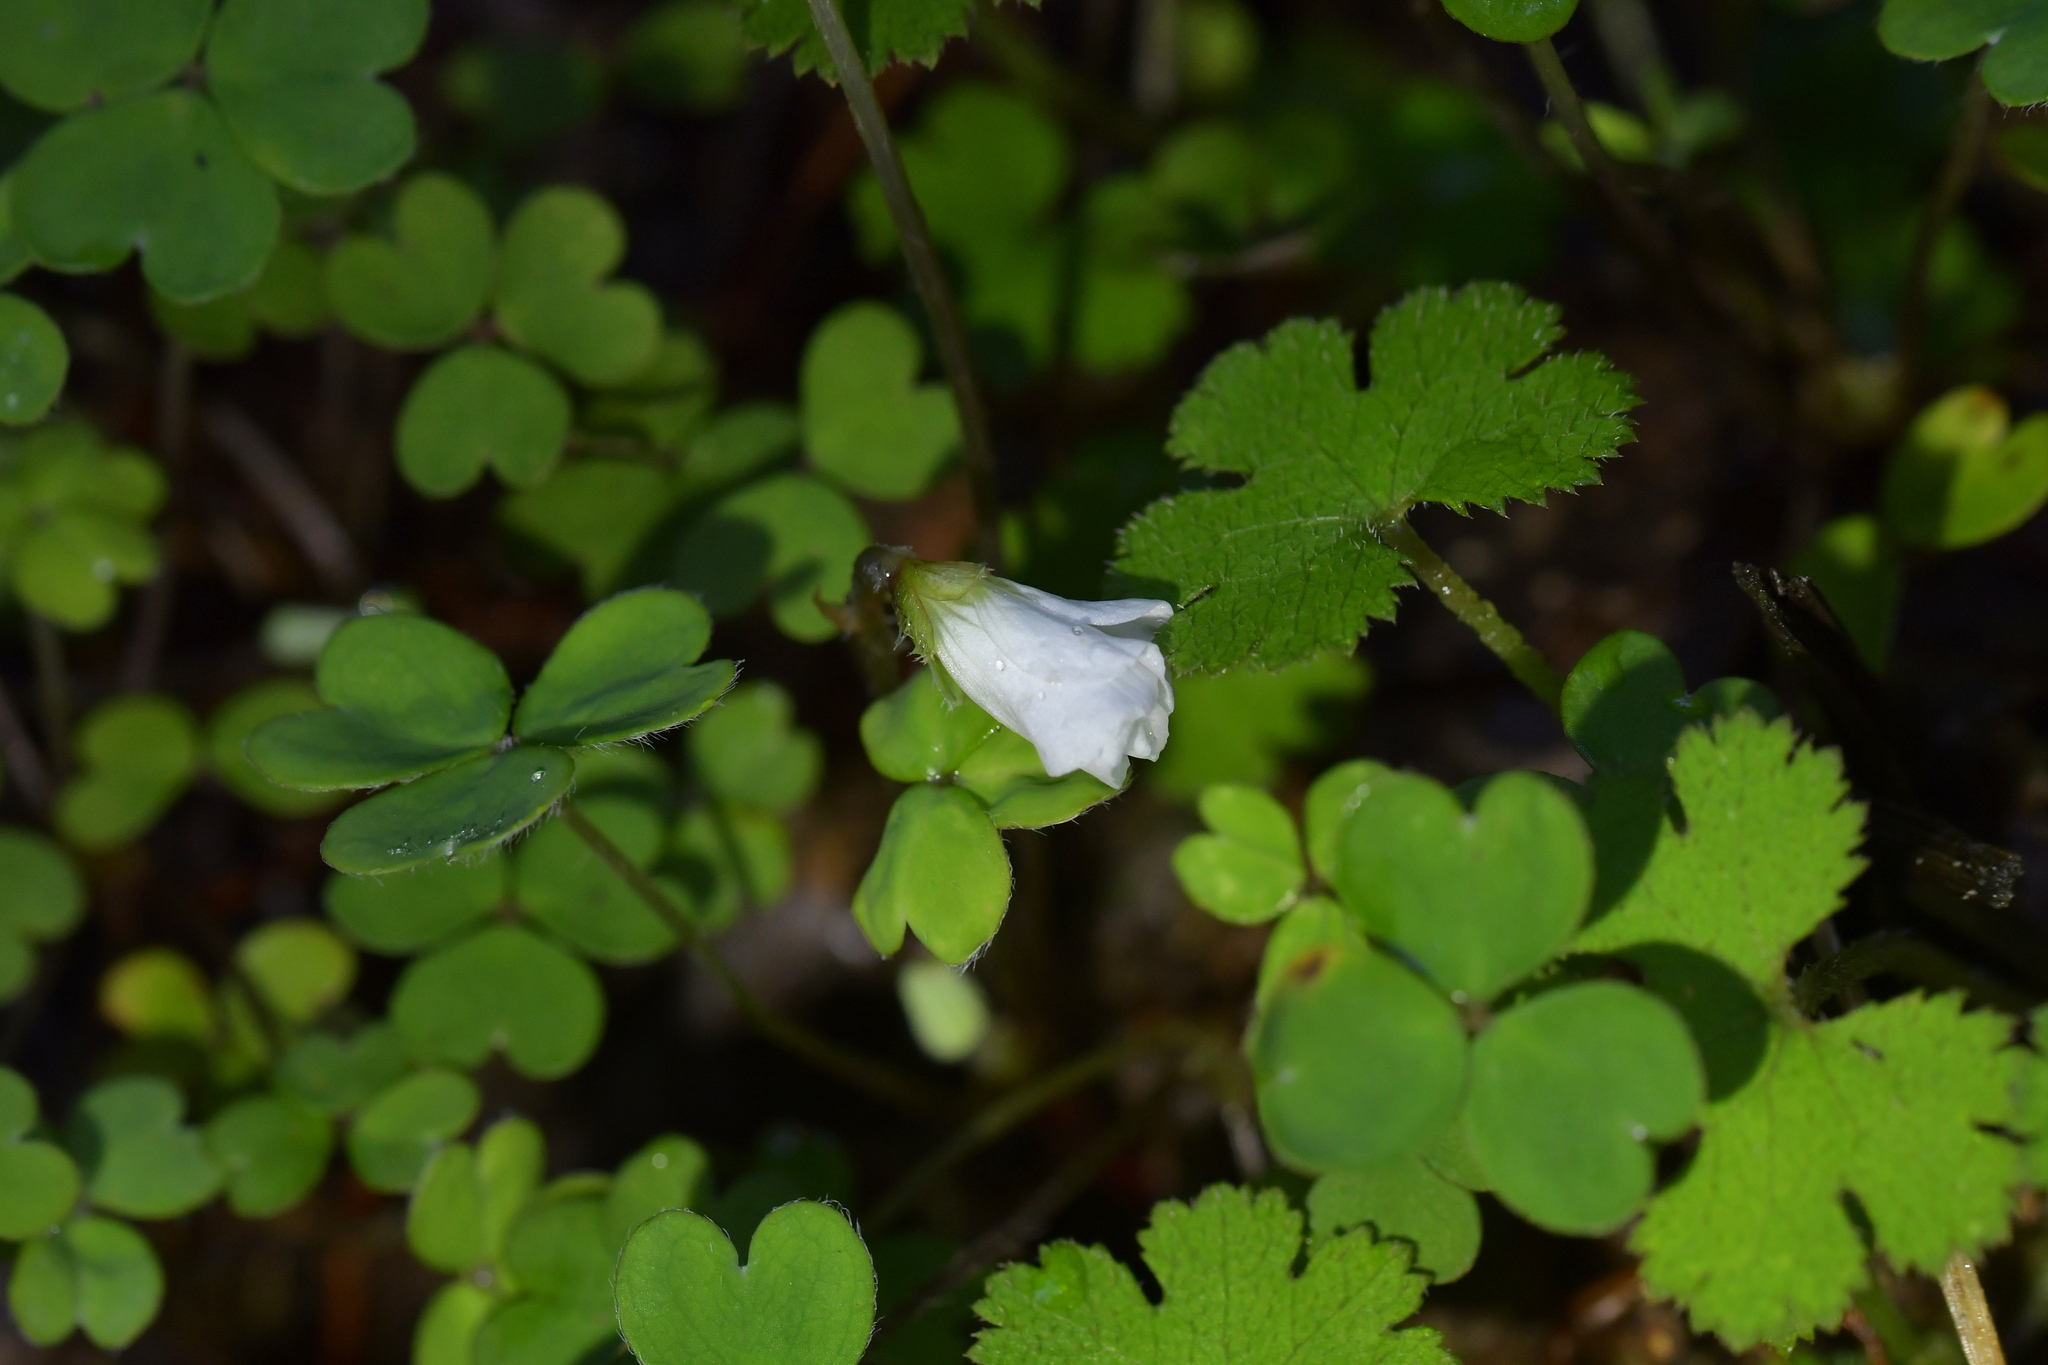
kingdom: Plantae
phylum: Tracheophyta
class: Magnoliopsida
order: Oxalidales
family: Oxalidaceae
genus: Oxalis
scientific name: Oxalis magellanica
